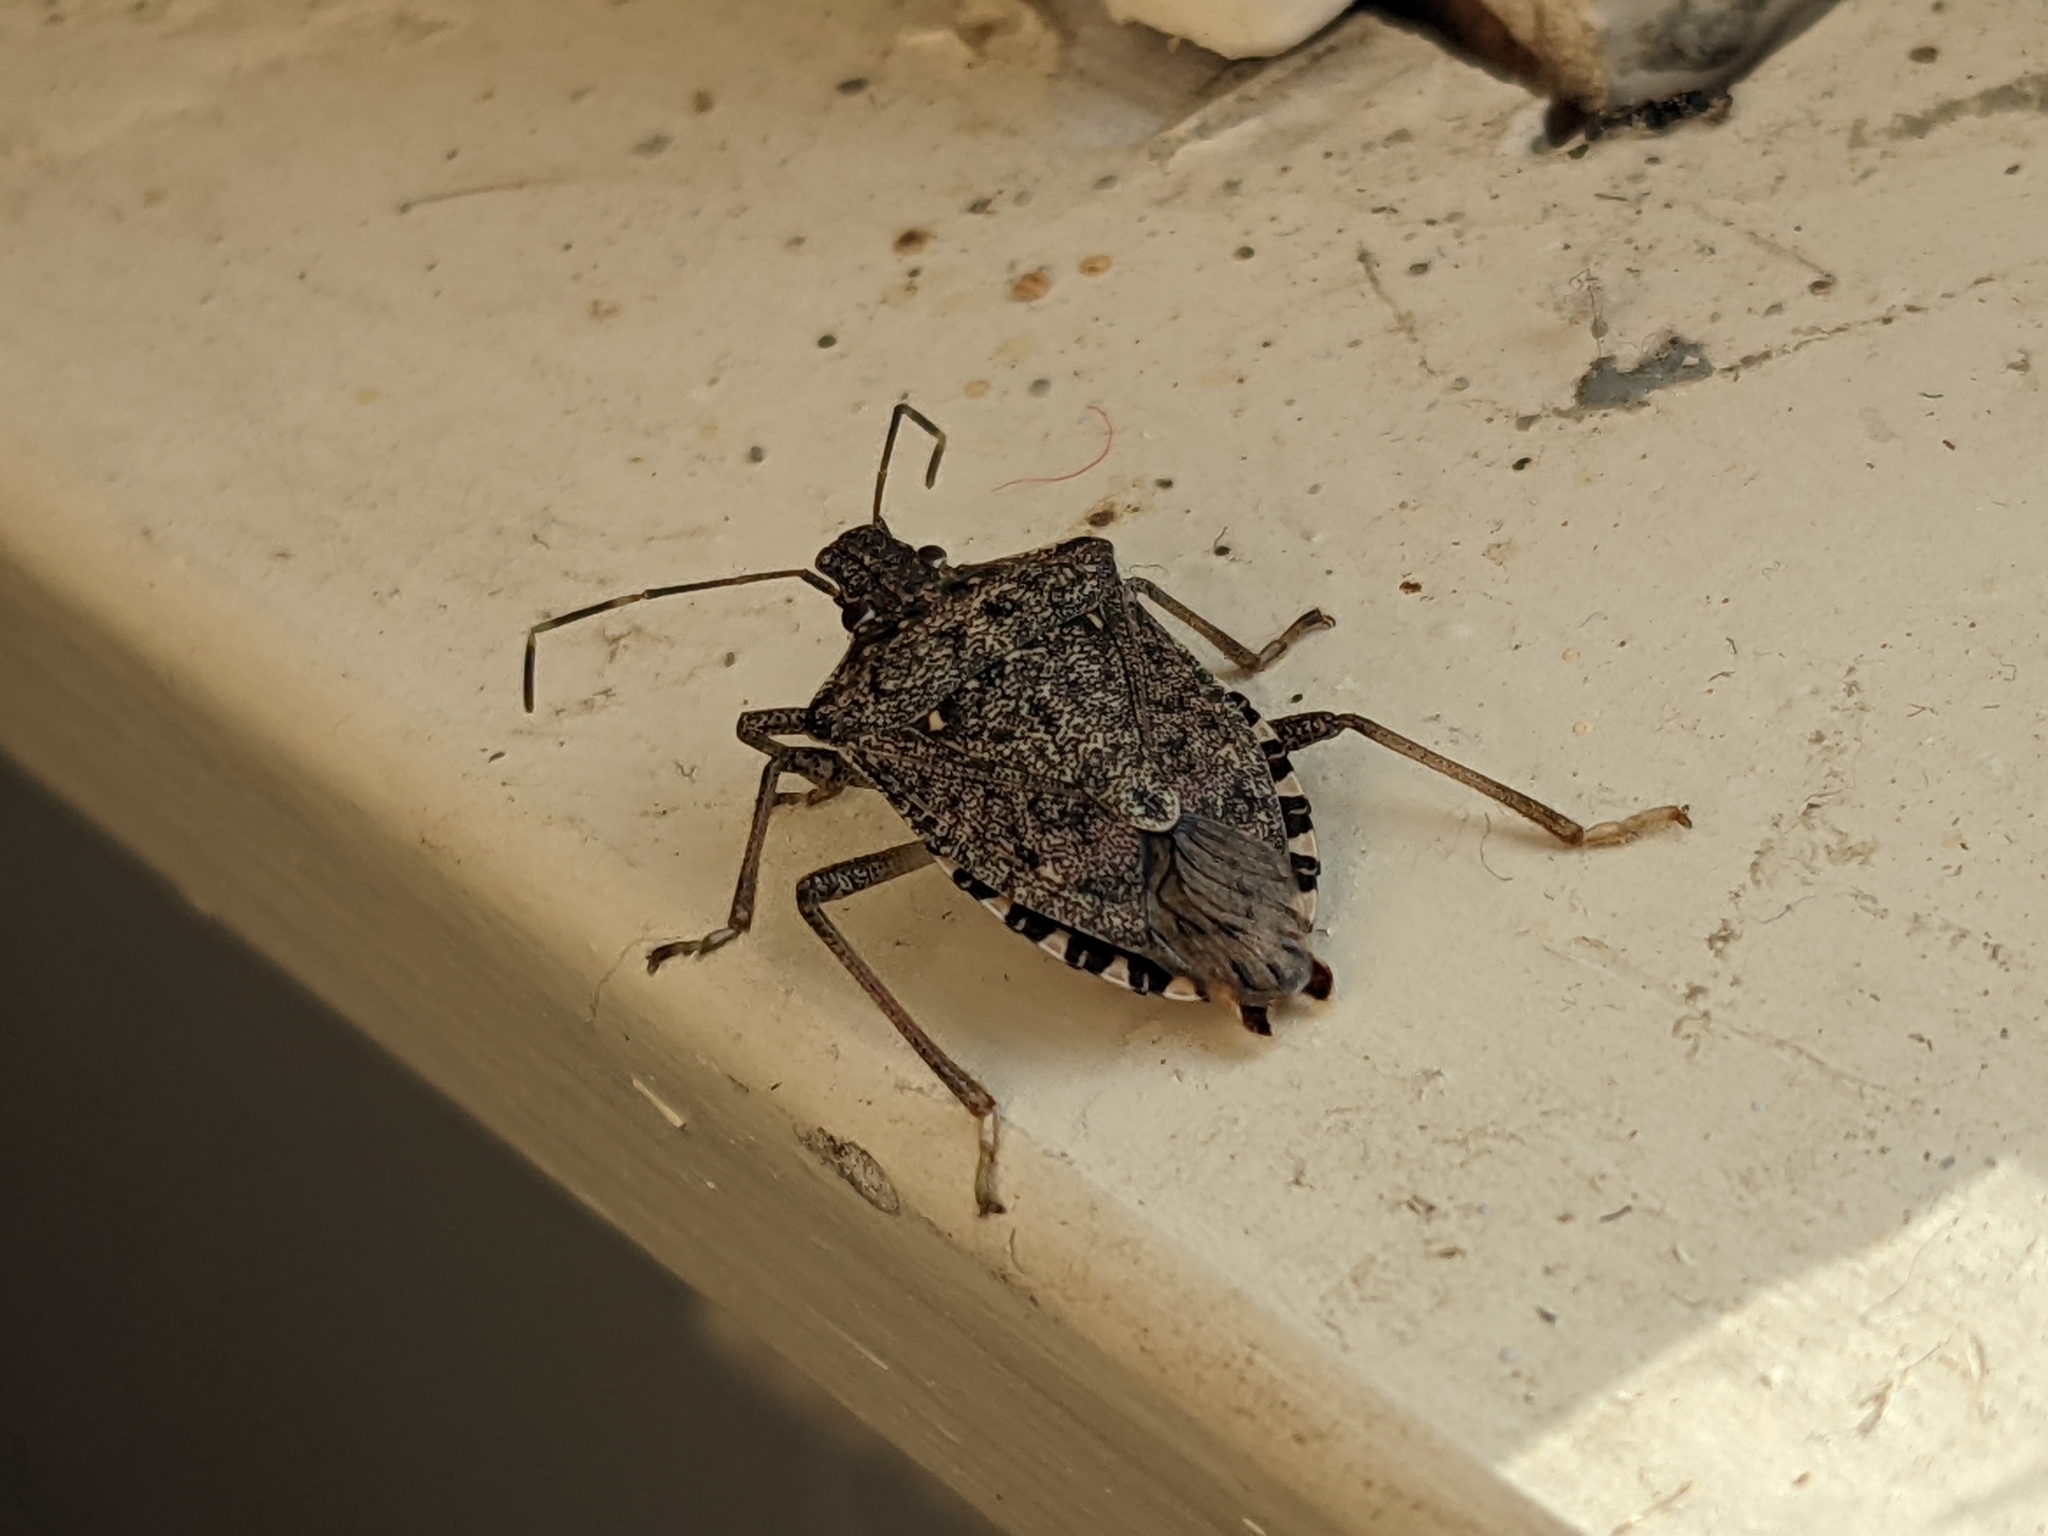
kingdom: Animalia
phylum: Arthropoda
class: Insecta
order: Hemiptera
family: Pentatomidae
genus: Halyomorpha
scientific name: Halyomorpha halys
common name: Brown marmorated stink bug
